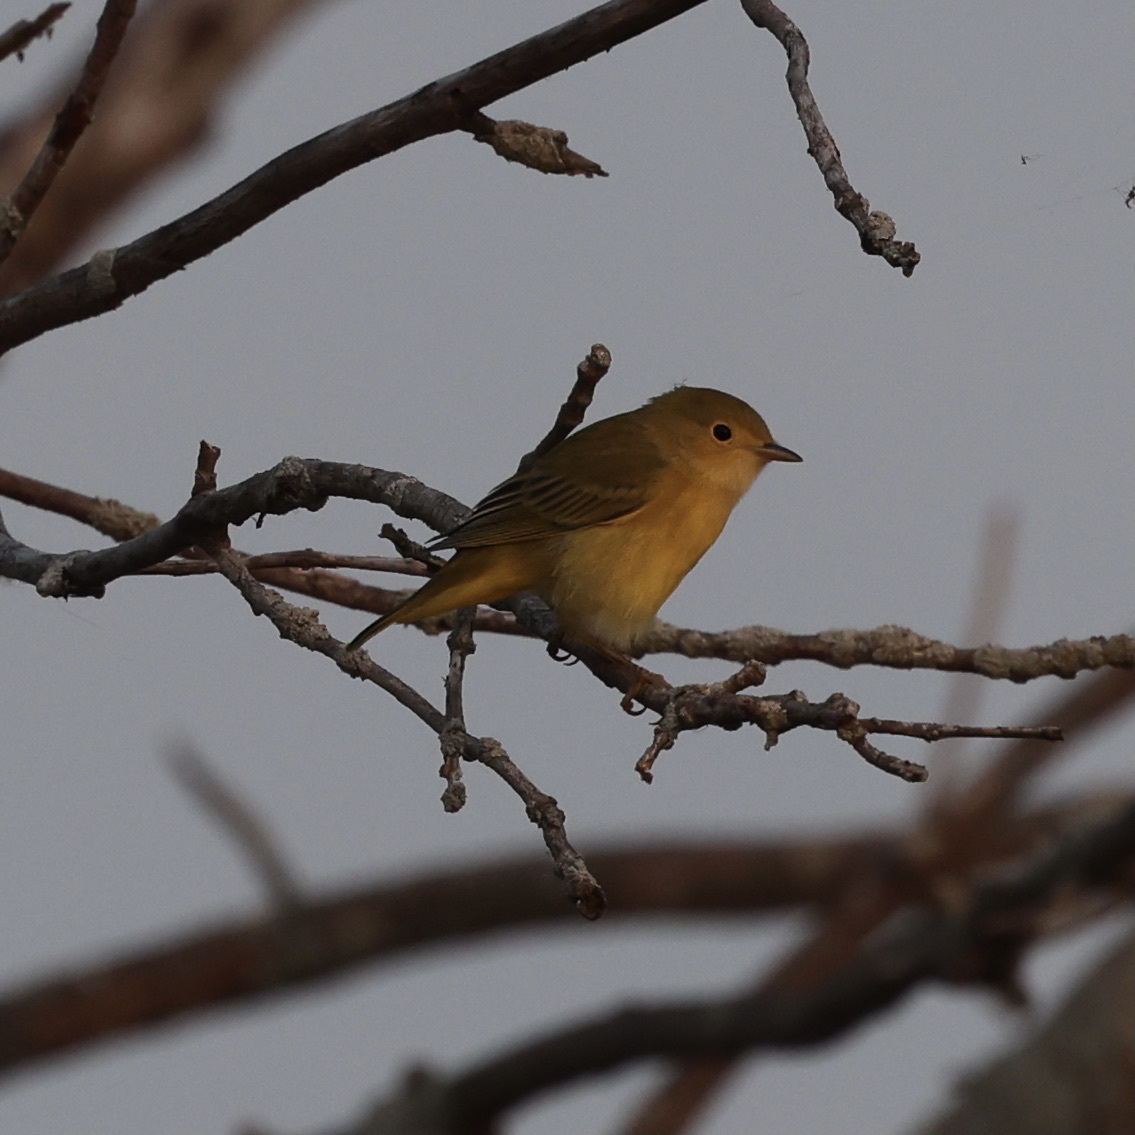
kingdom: Animalia
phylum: Chordata
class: Aves
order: Passeriformes
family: Parulidae
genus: Setophaga
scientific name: Setophaga petechia
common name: Yellow warbler
